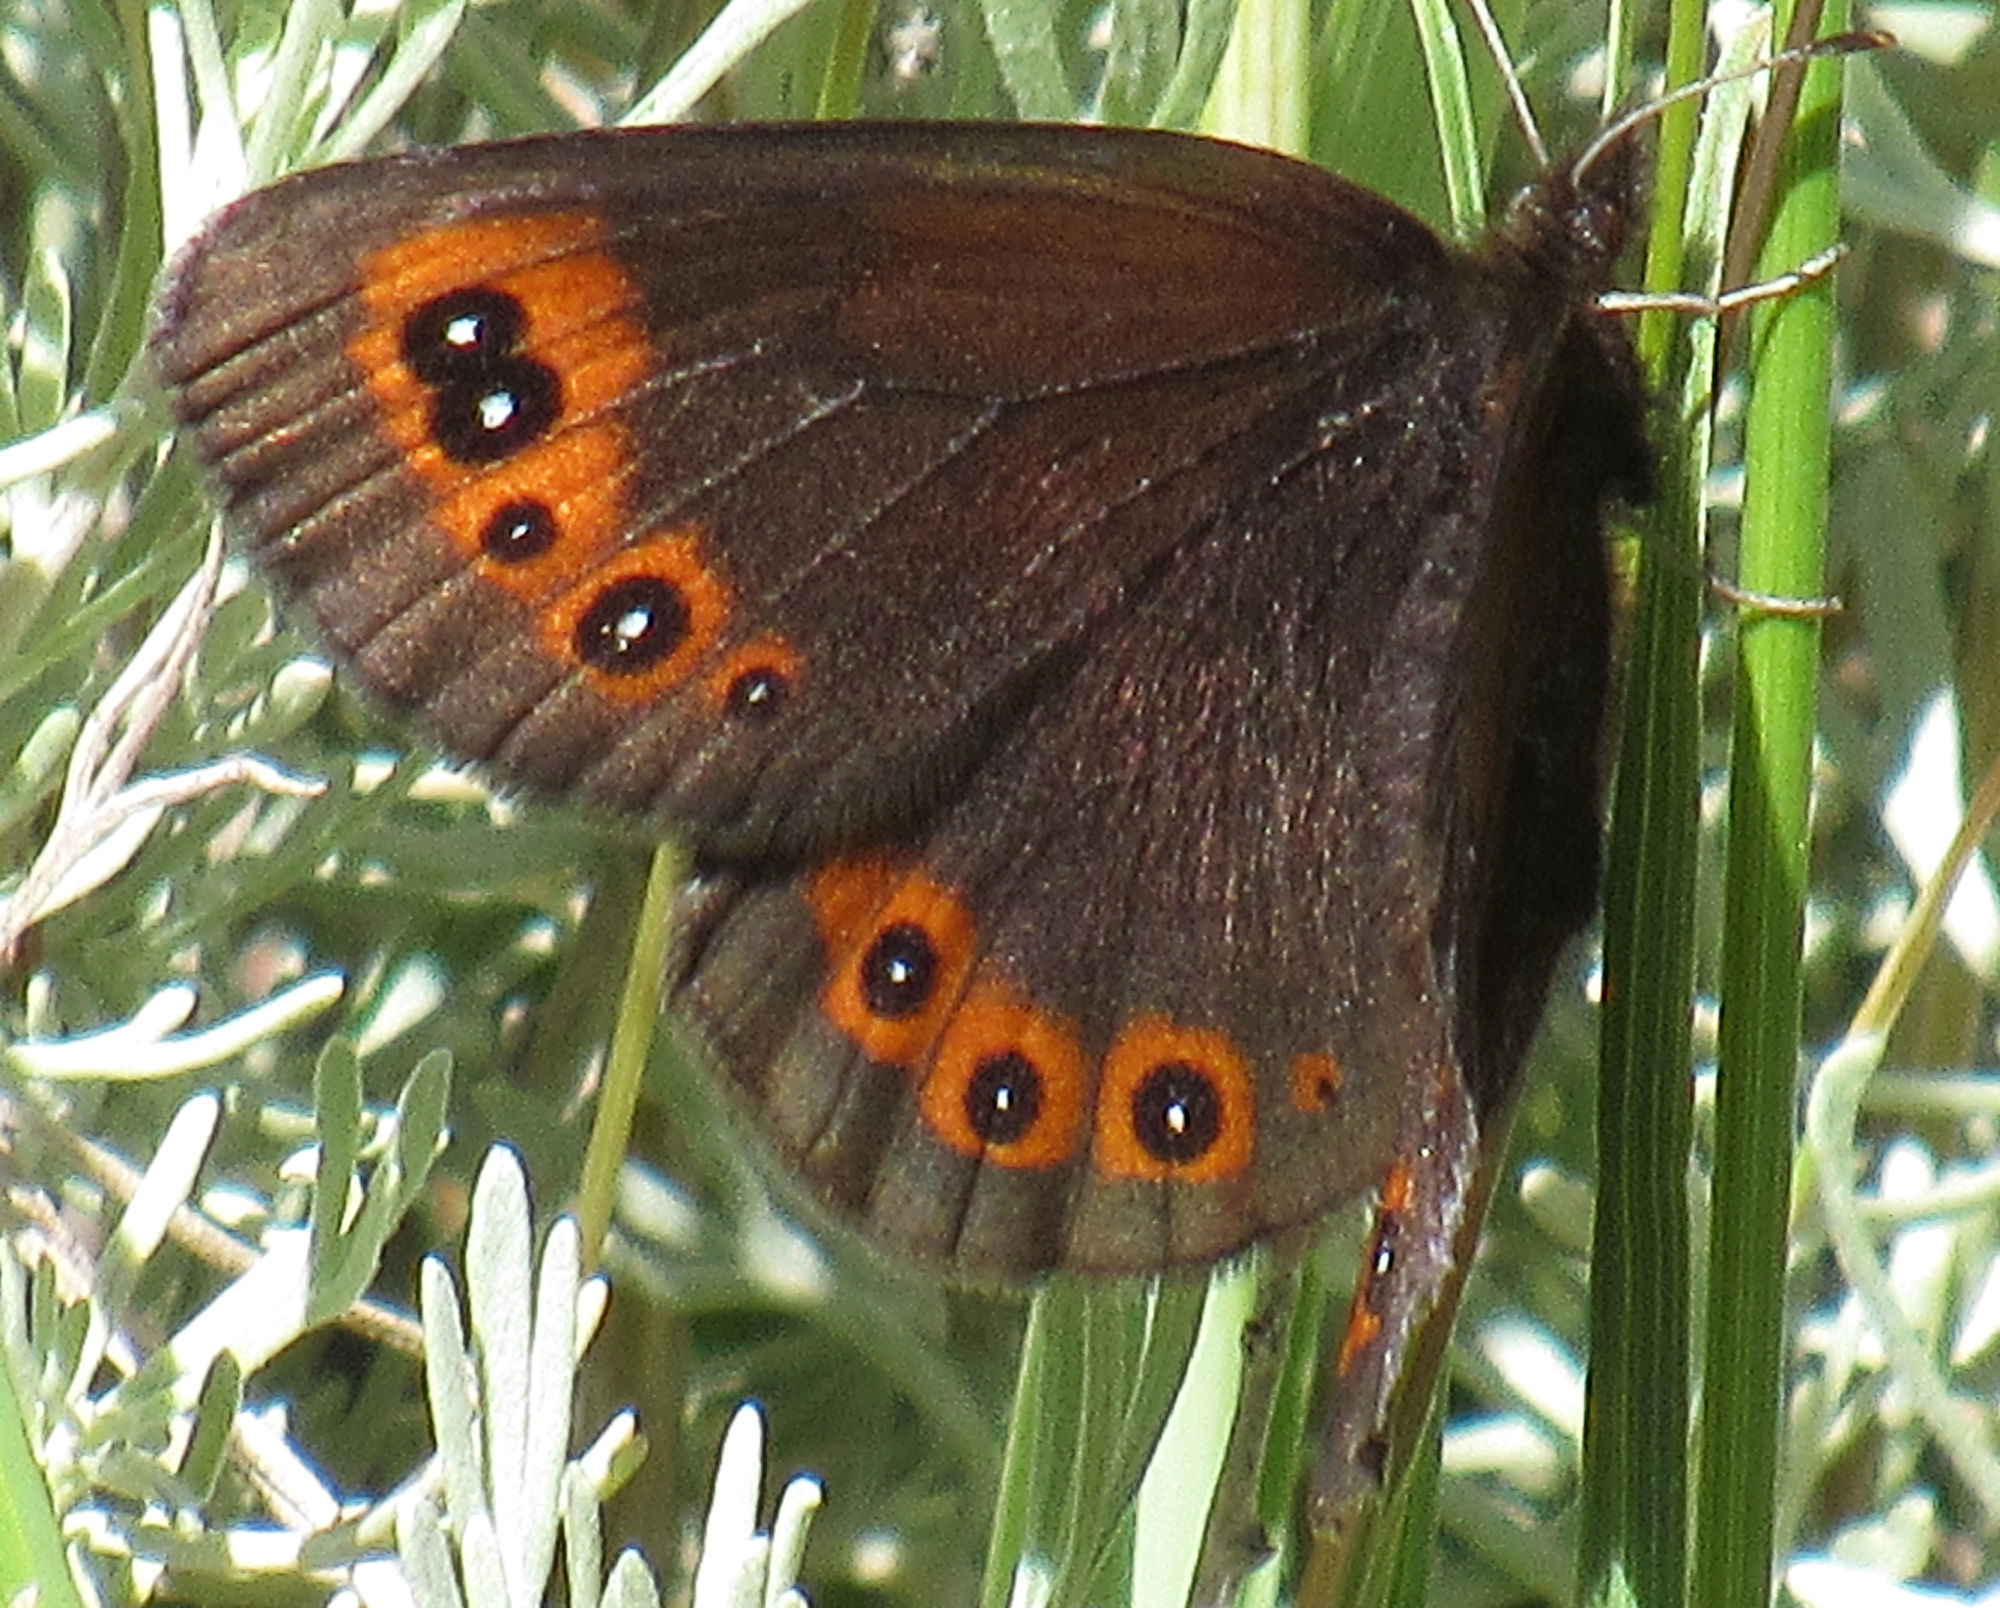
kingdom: Animalia
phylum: Arthropoda
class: Insecta
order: Lepidoptera
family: Nymphalidae
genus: Erebia
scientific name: Erebia epipsodea
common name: Common alpine
